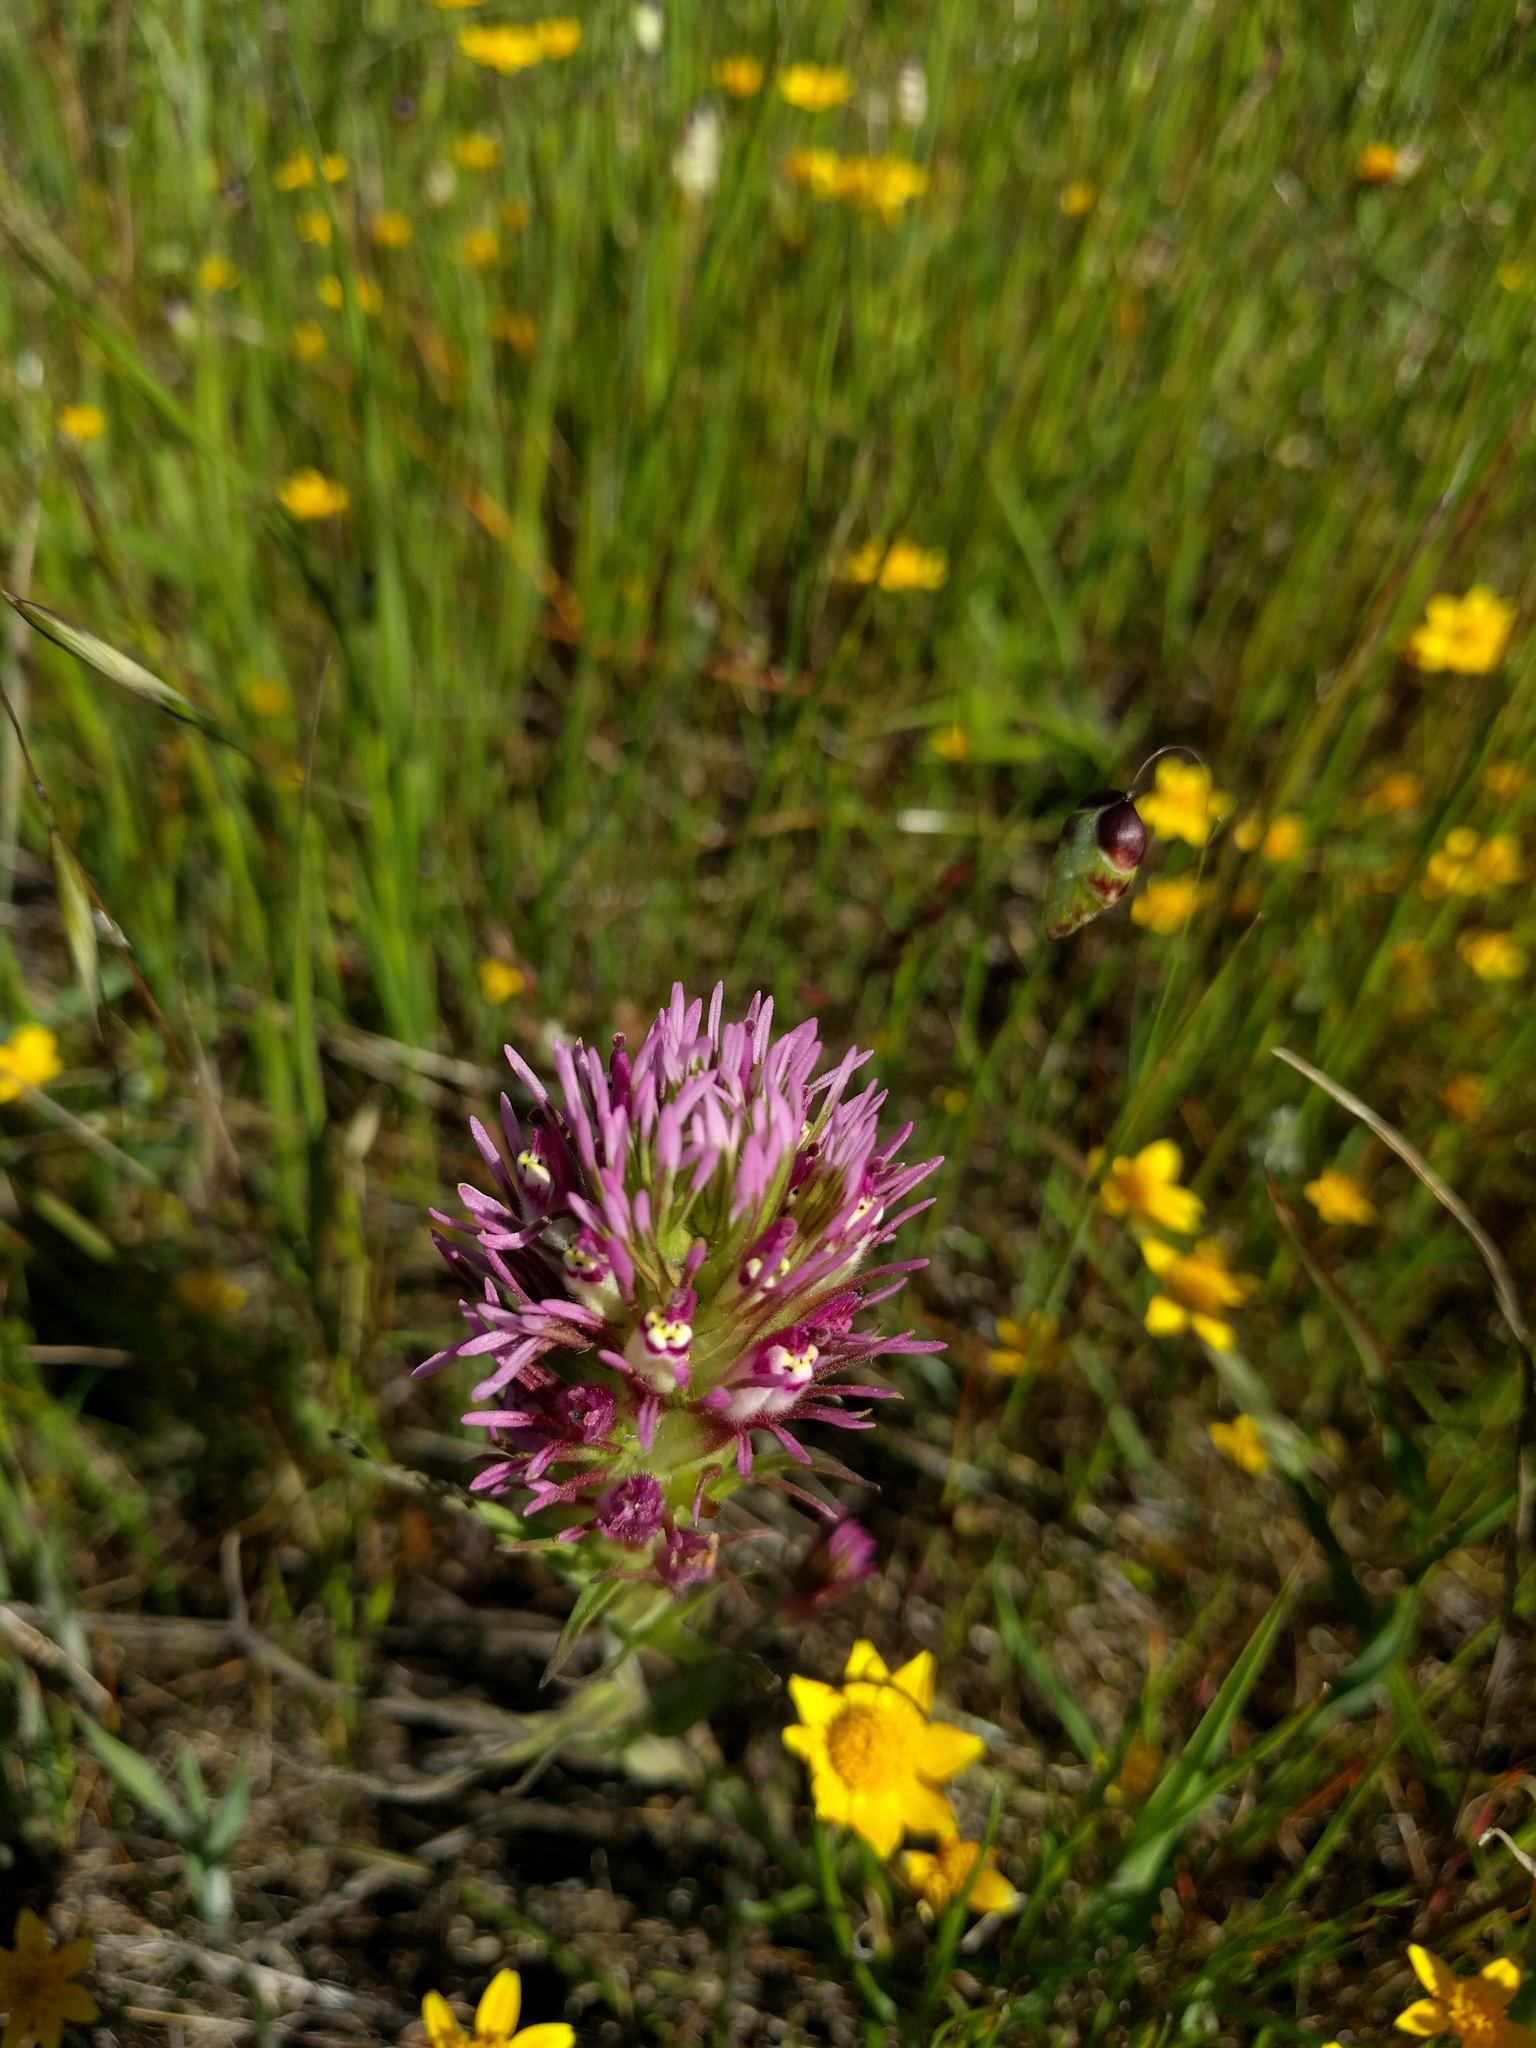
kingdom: Plantae
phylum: Tracheophyta
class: Magnoliopsida
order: Lamiales
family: Orobanchaceae
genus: Castilleja
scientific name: Castilleja densiflora
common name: Dense-flower indian paintbrush
